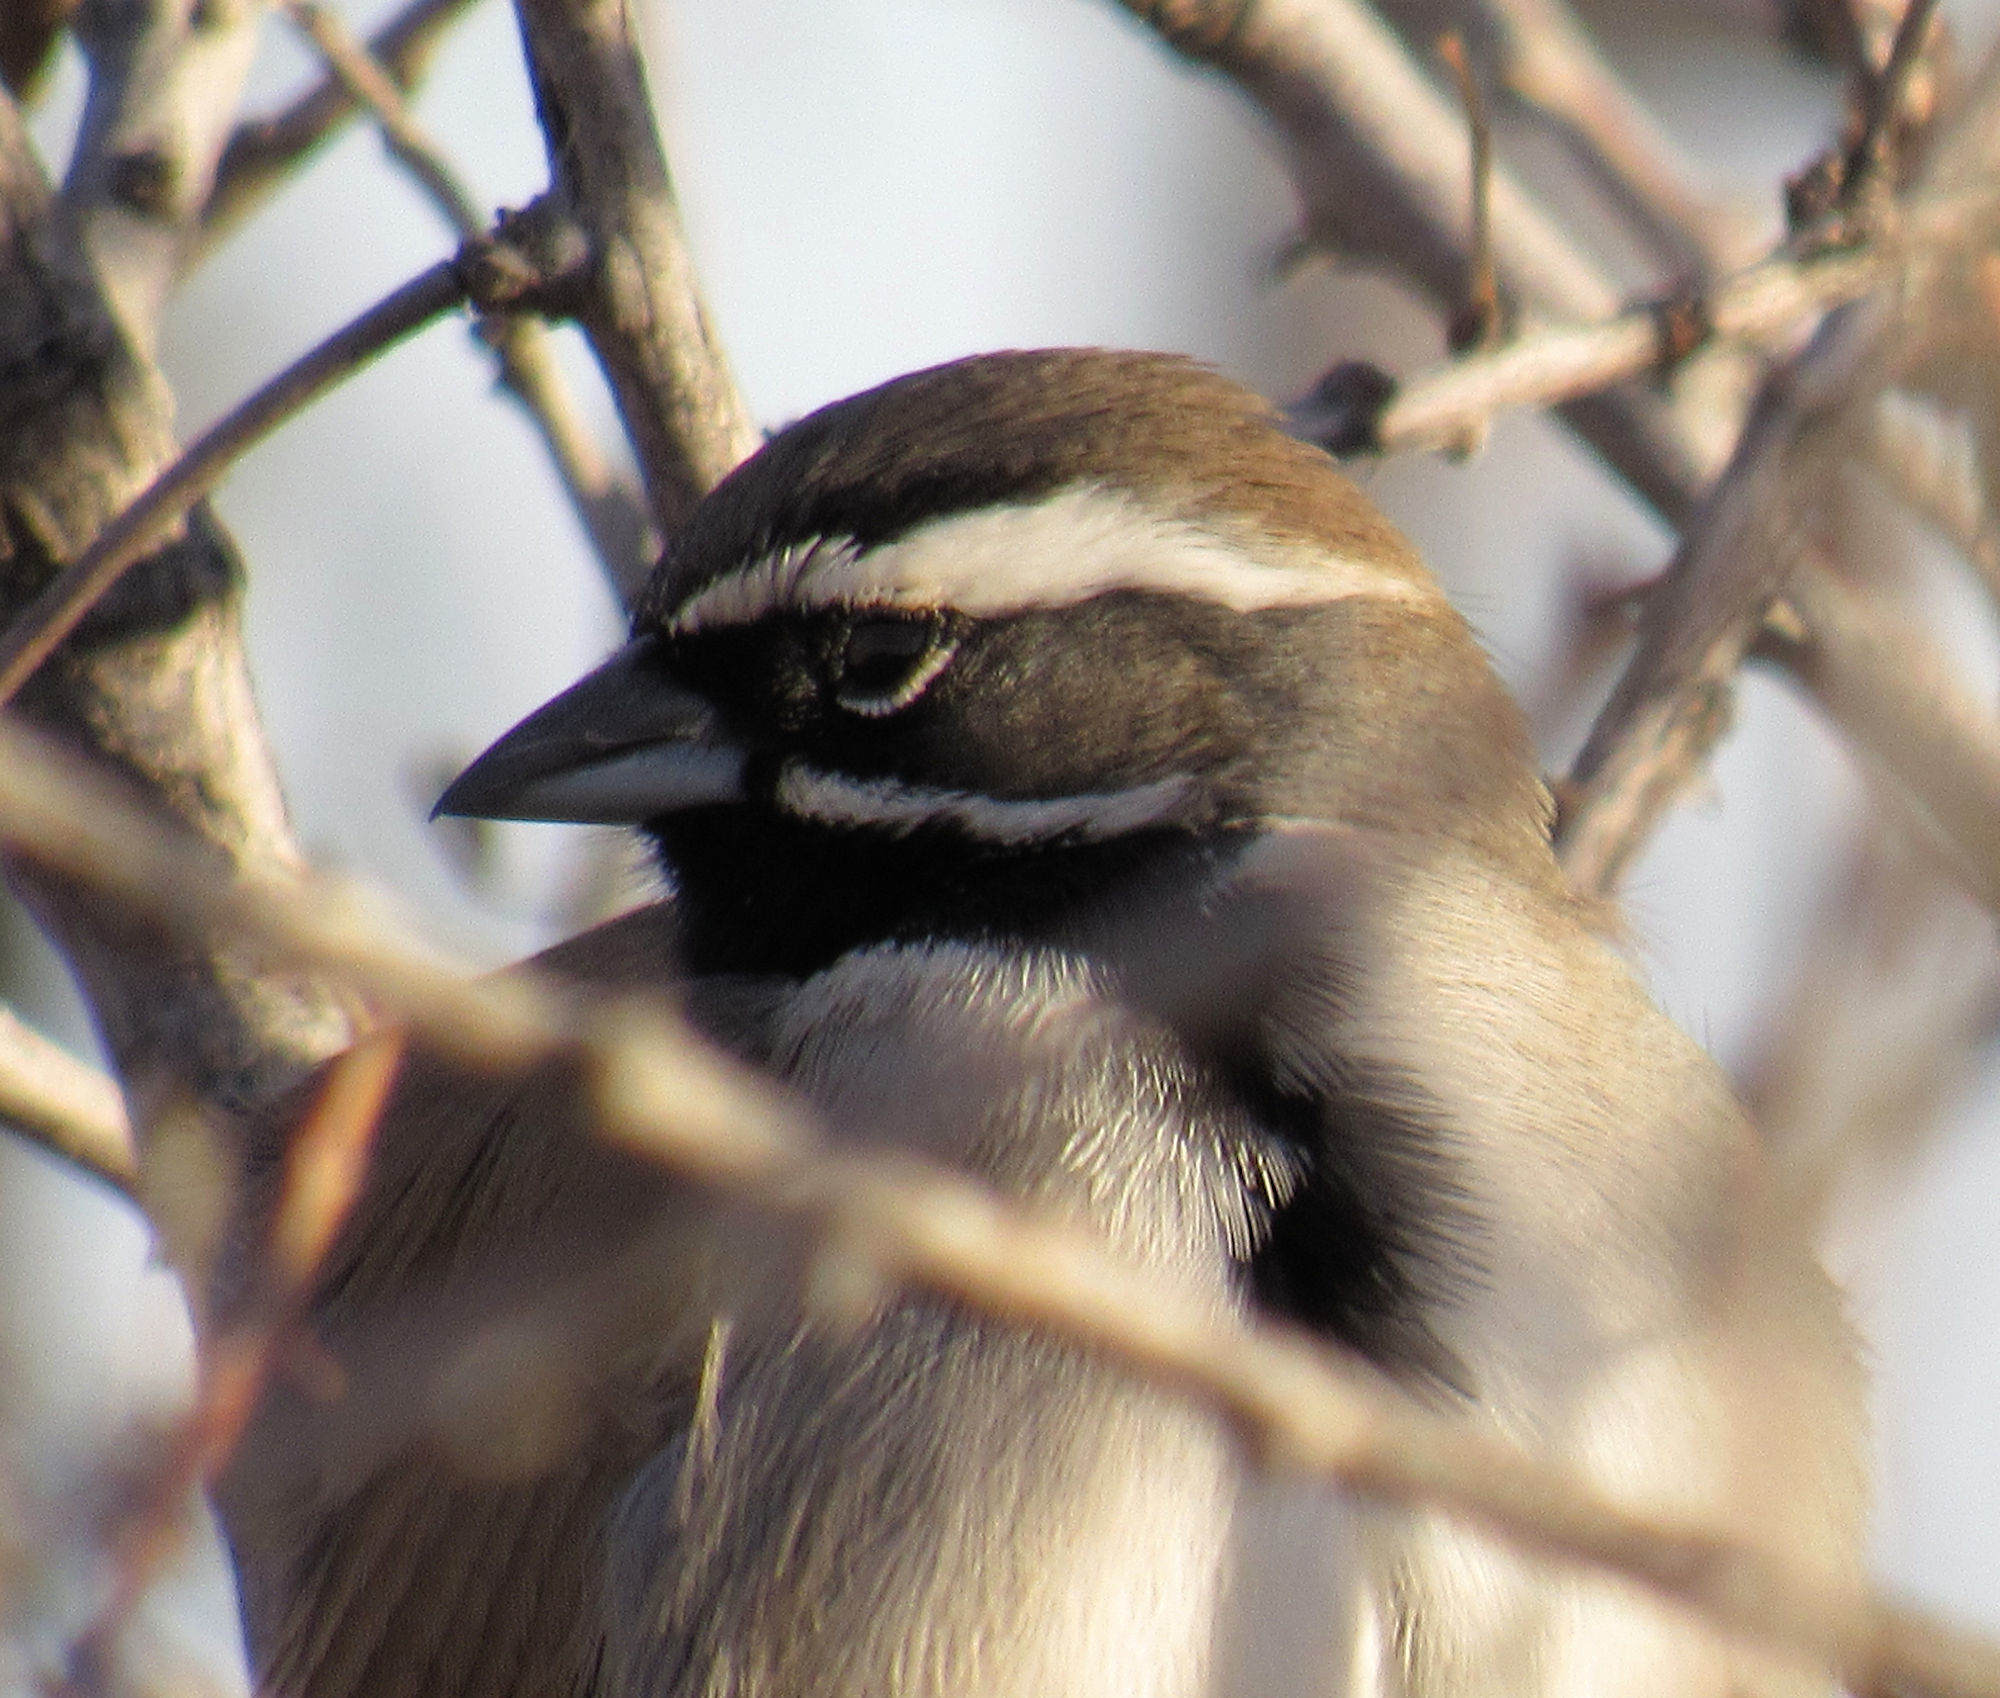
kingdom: Animalia
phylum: Chordata
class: Aves
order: Passeriformes
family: Passerellidae
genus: Amphispiza
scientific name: Amphispiza bilineata
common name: Black-throated sparrow
